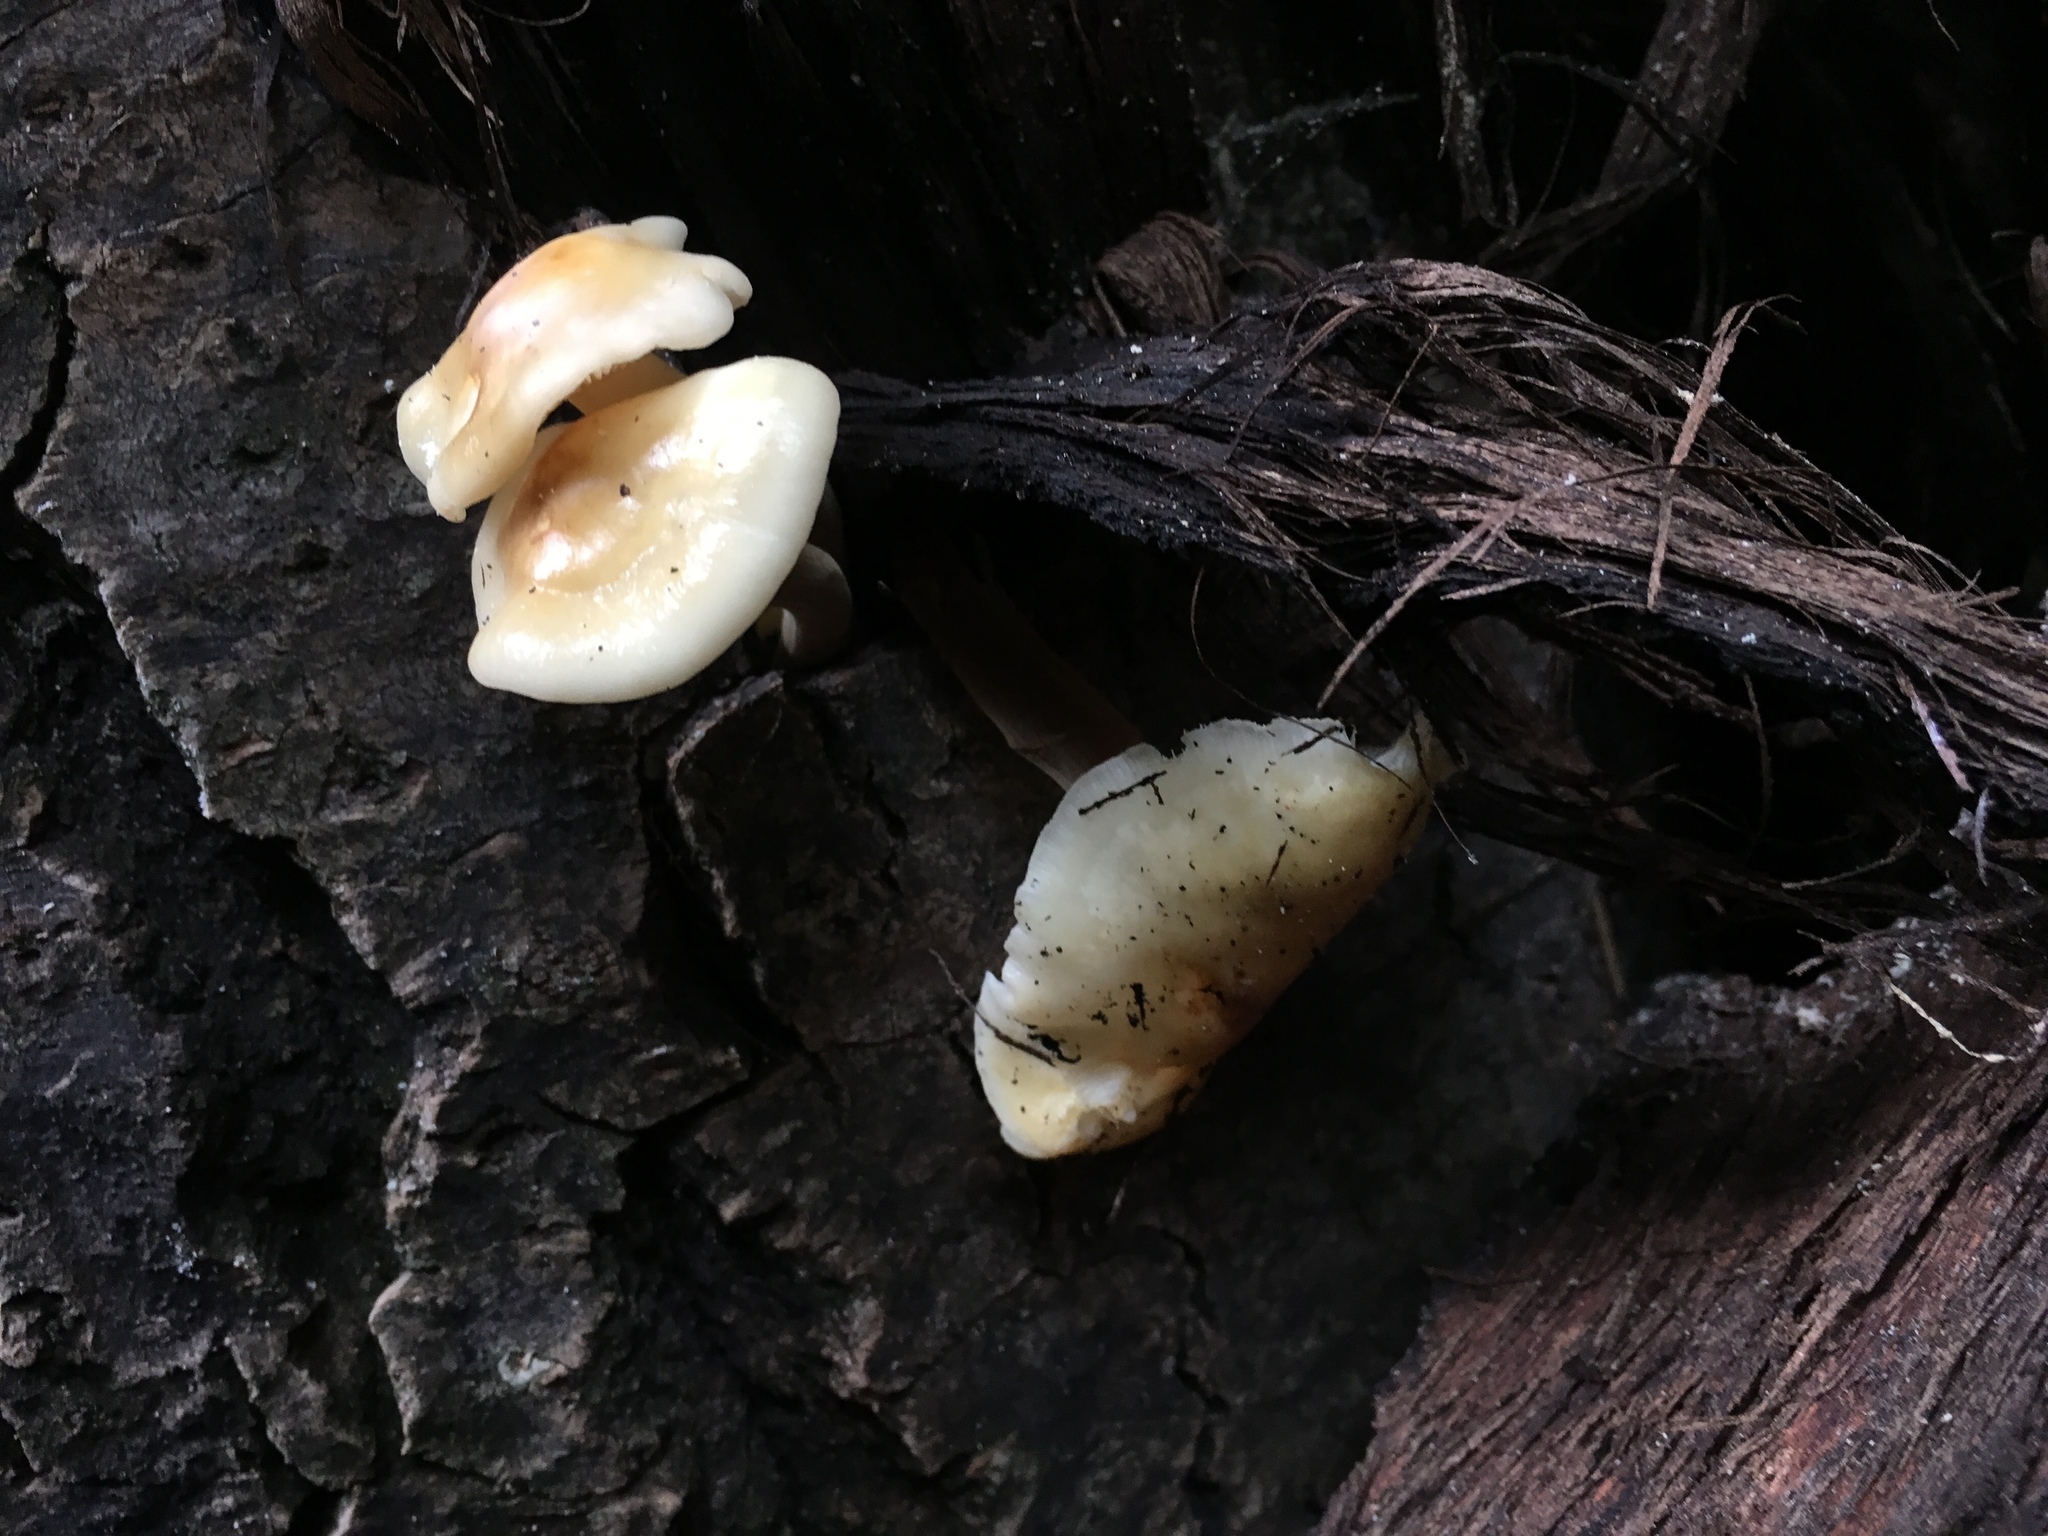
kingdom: Fungi
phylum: Basidiomycota
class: Agaricomycetes
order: Agaricales
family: Physalacriaceae
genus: Flammulina
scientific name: Flammulina populicola
